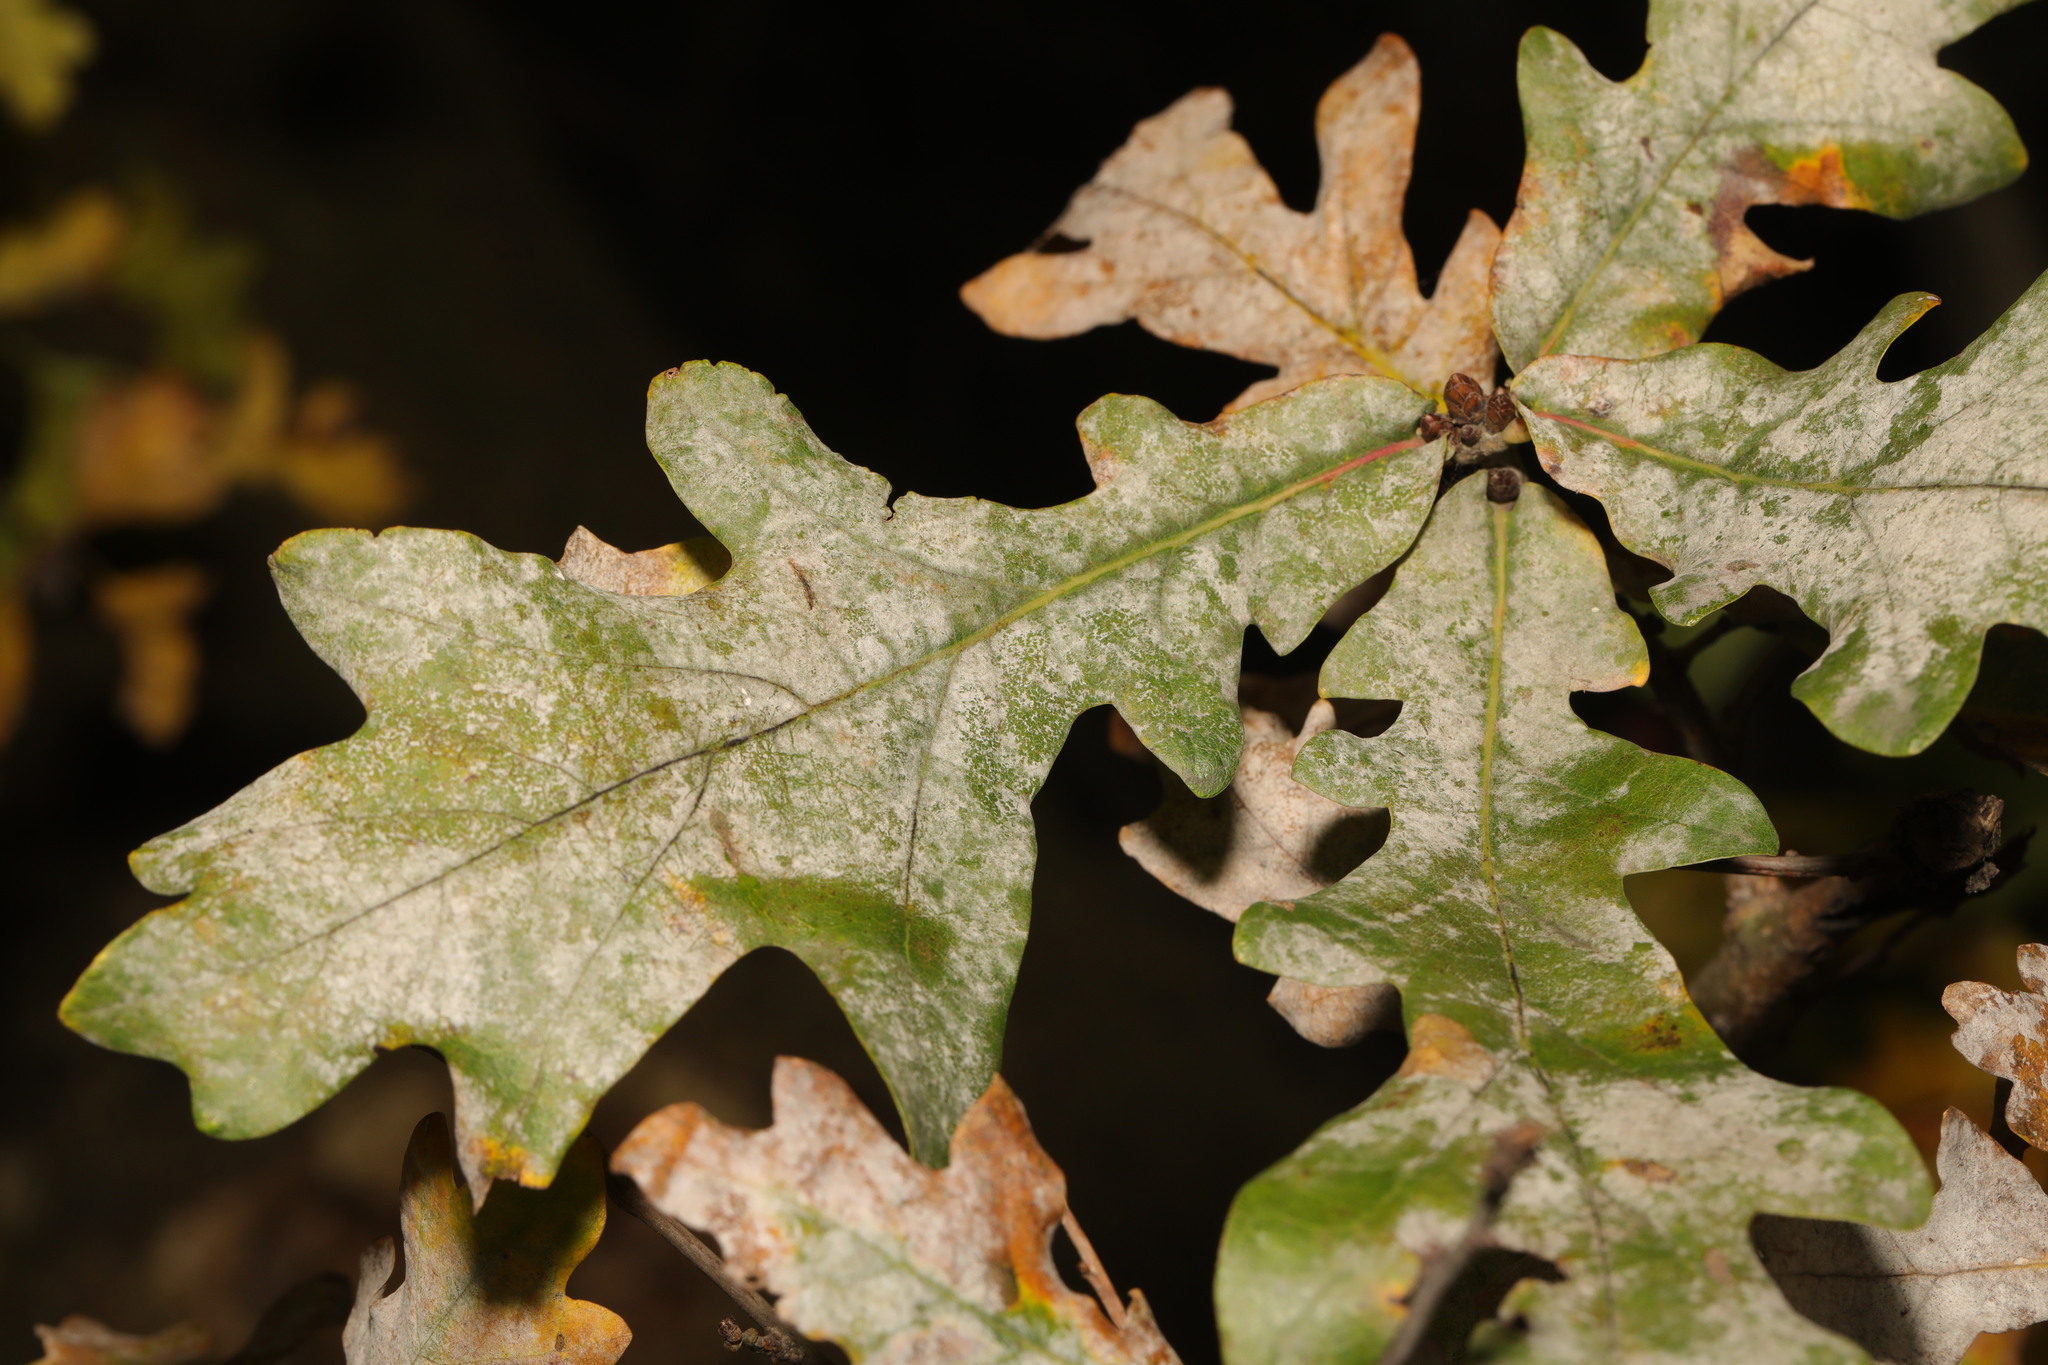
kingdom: Fungi
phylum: Ascomycota
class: Leotiomycetes
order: Helotiales
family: Erysiphaceae
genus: Erysiphe
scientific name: Erysiphe alphitoides
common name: Oak mildew
